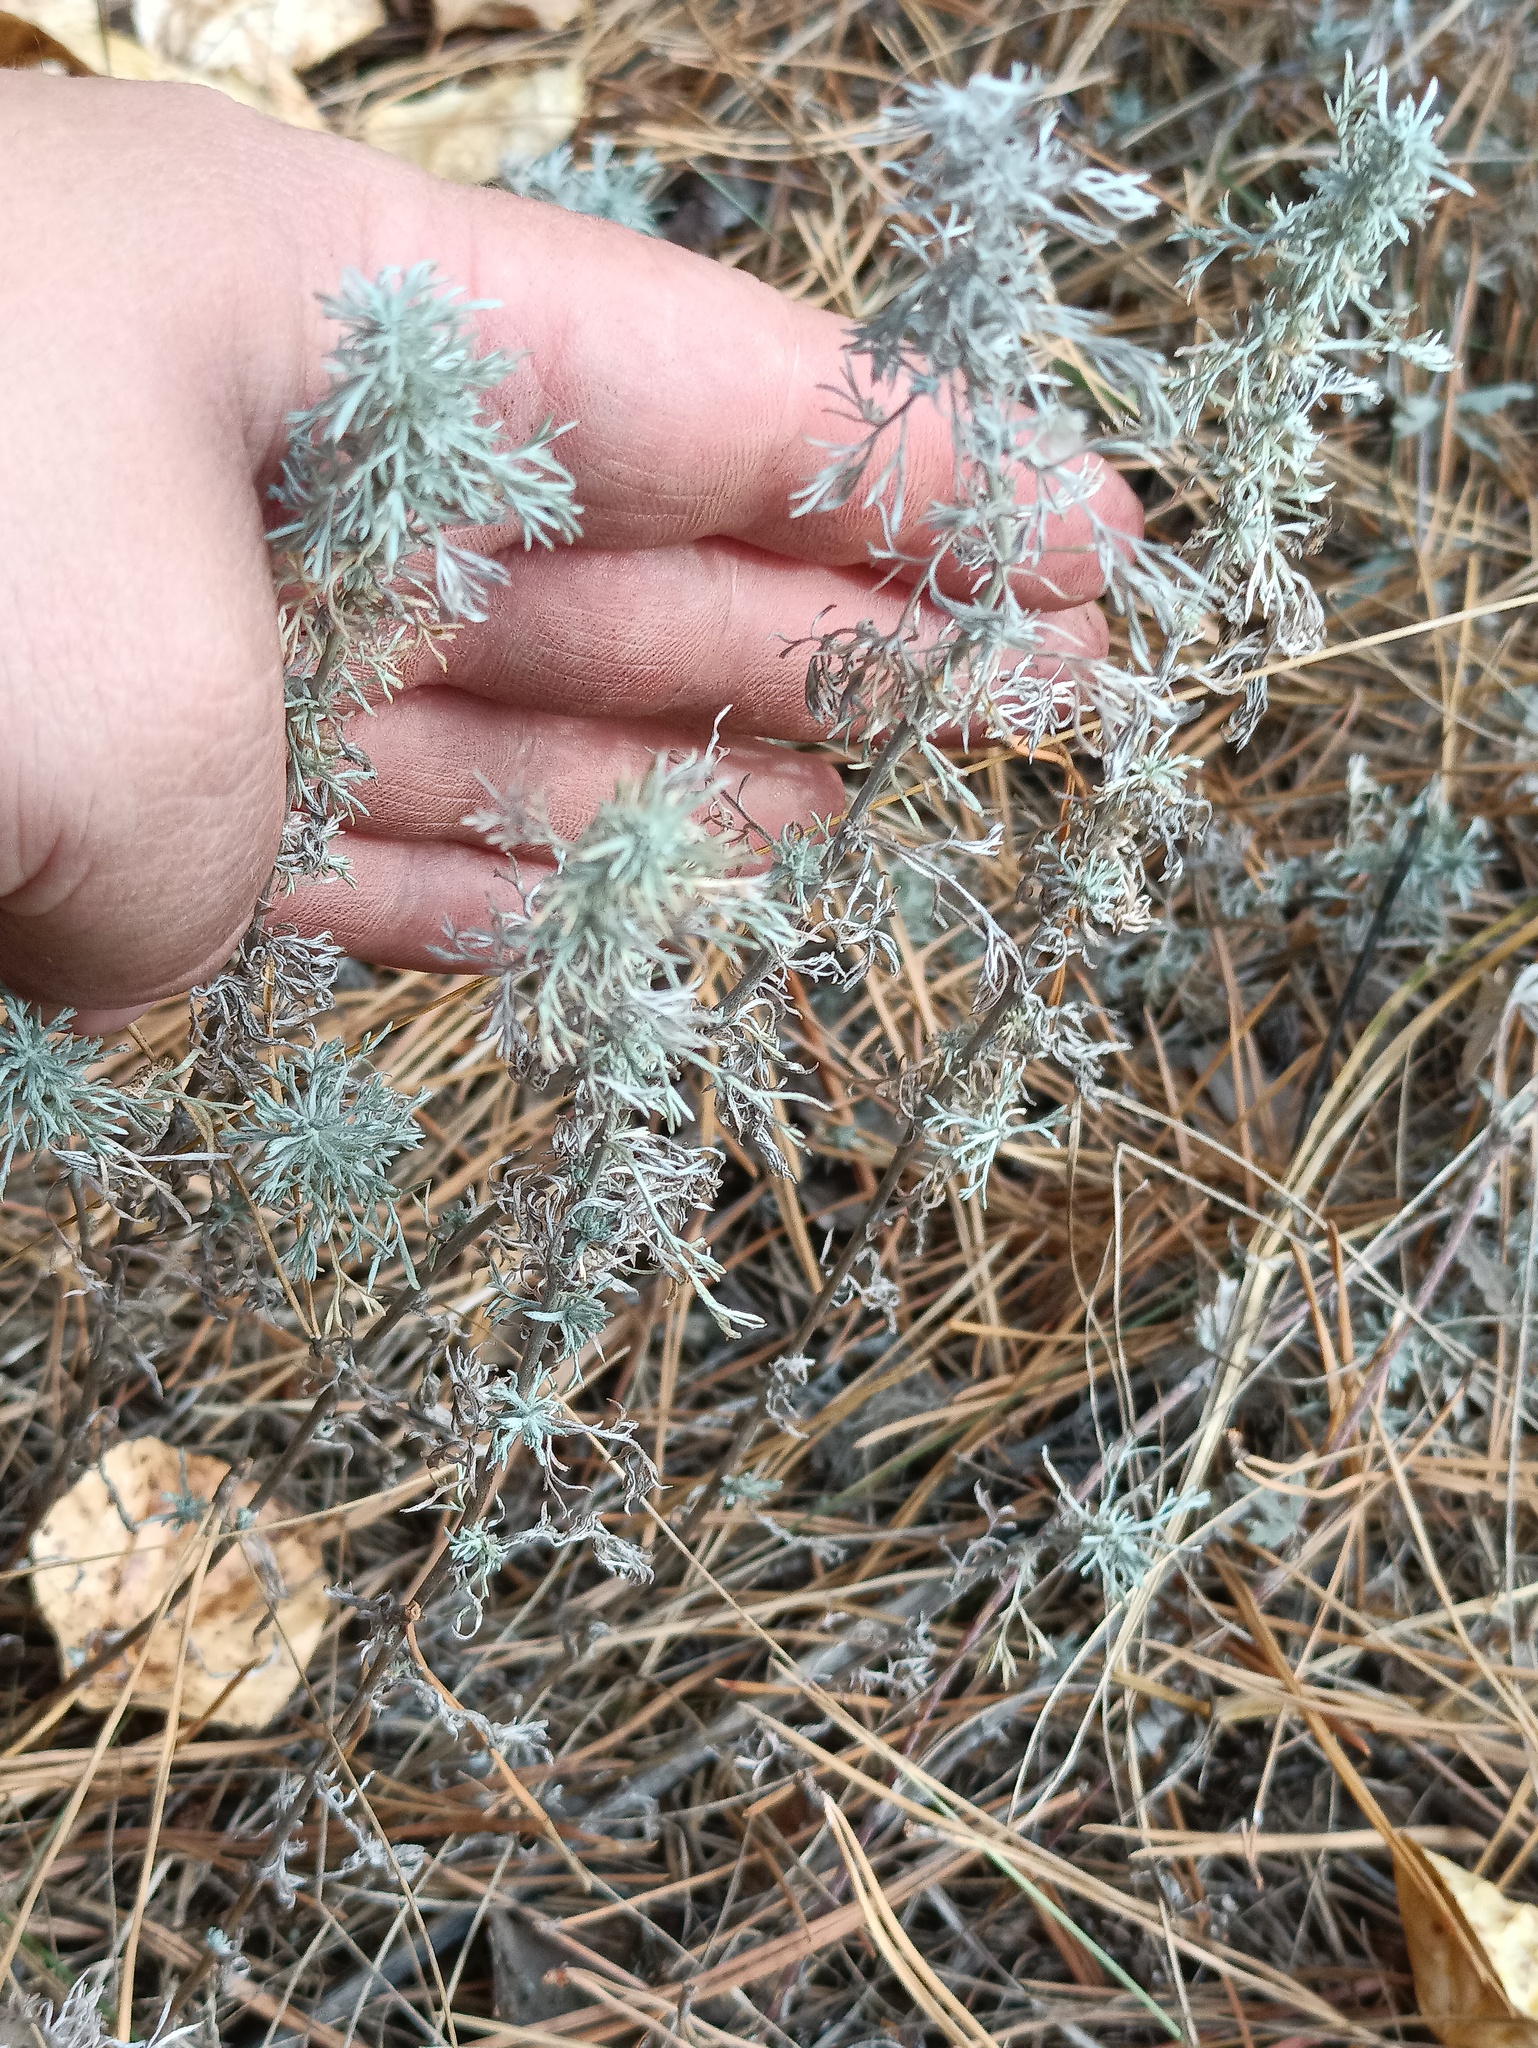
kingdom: Plantae
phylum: Tracheophyta
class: Magnoliopsida
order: Asterales
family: Asteraceae
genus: Artemisia
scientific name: Artemisia austriaca
